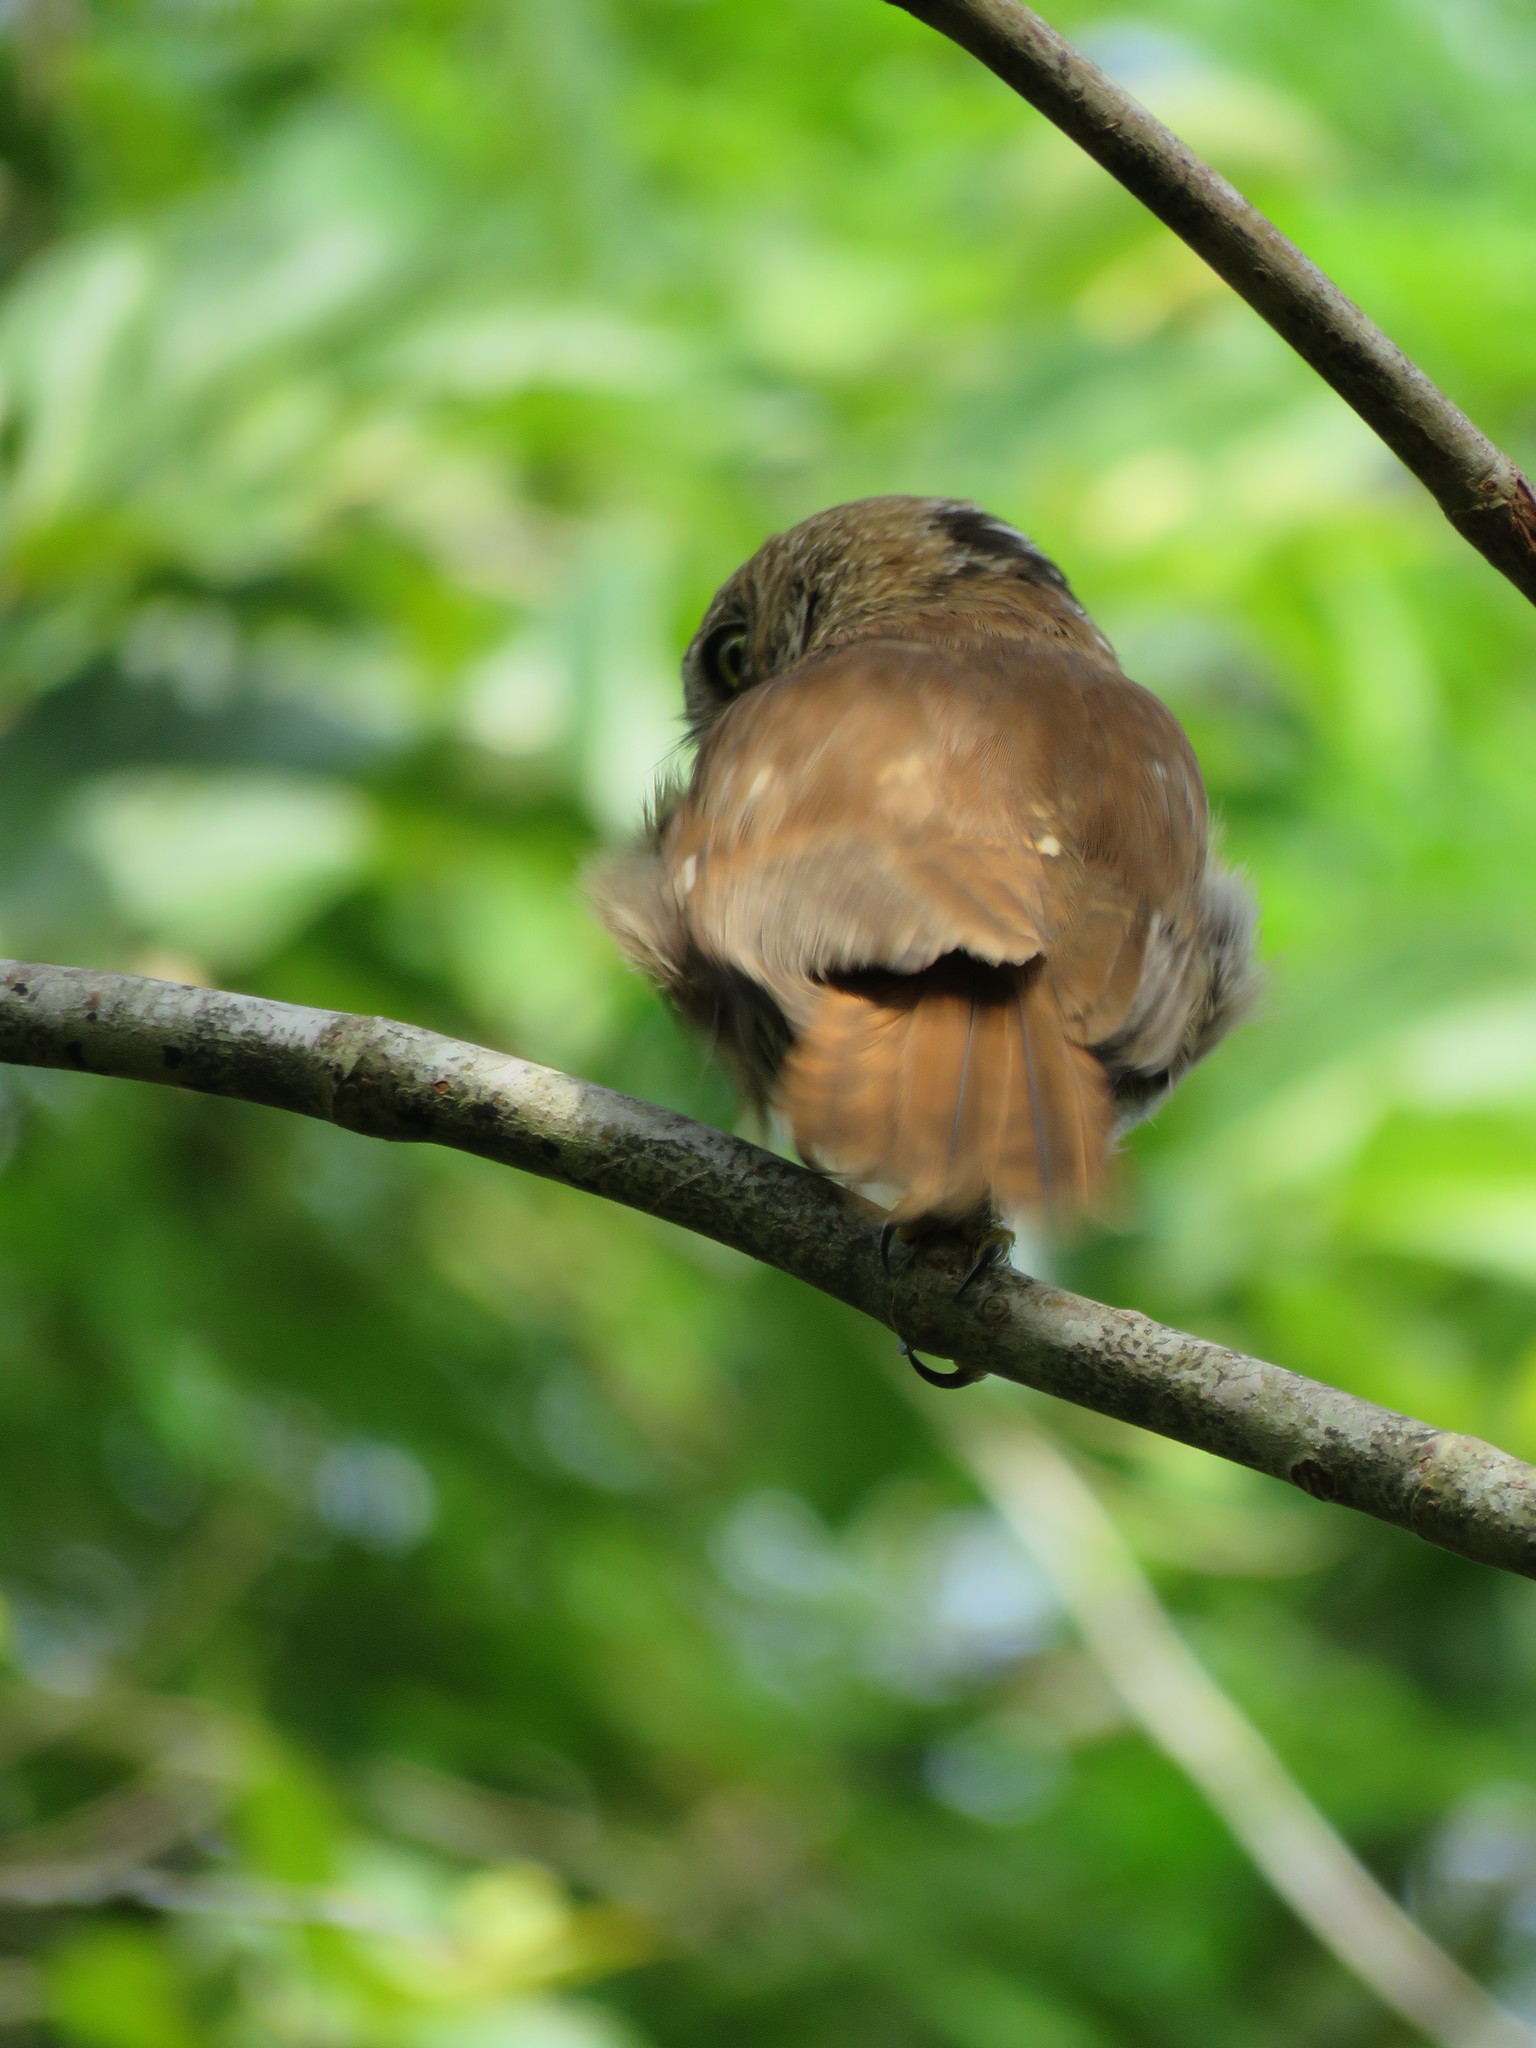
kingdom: Animalia
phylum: Chordata
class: Aves
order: Strigiformes
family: Strigidae
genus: Glaucidium
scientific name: Glaucidium brasilianum
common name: Ferruginous pygmy-owl
